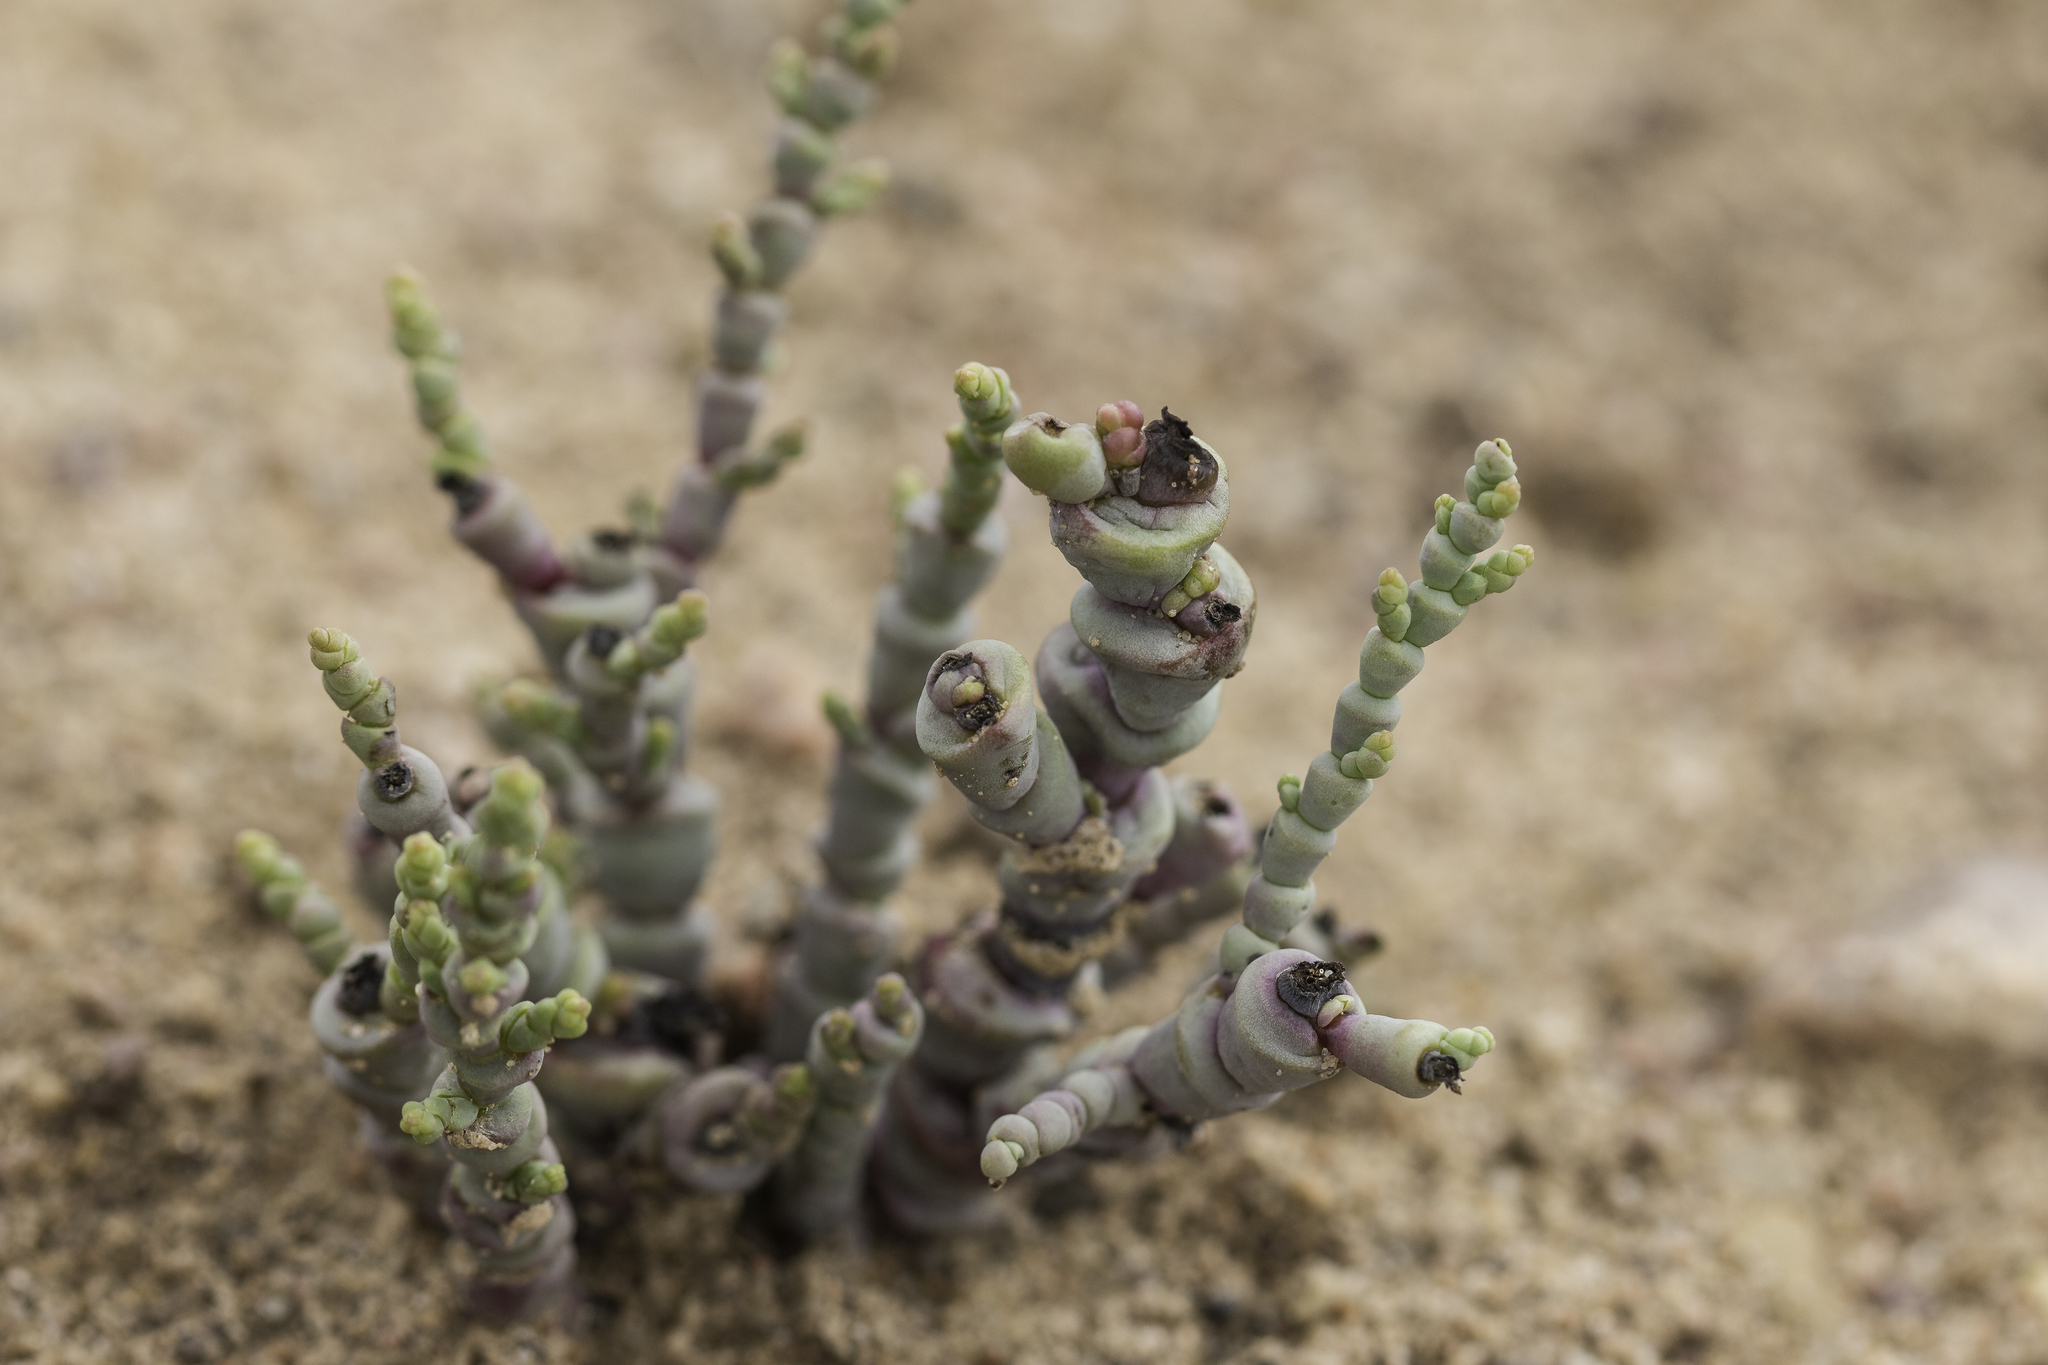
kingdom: Plantae
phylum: Tracheophyta
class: Magnoliopsida
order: Caryophyllales
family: Amaranthaceae
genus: Allenrolfea
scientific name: Allenrolfea occidentalis
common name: Iodine-bush
